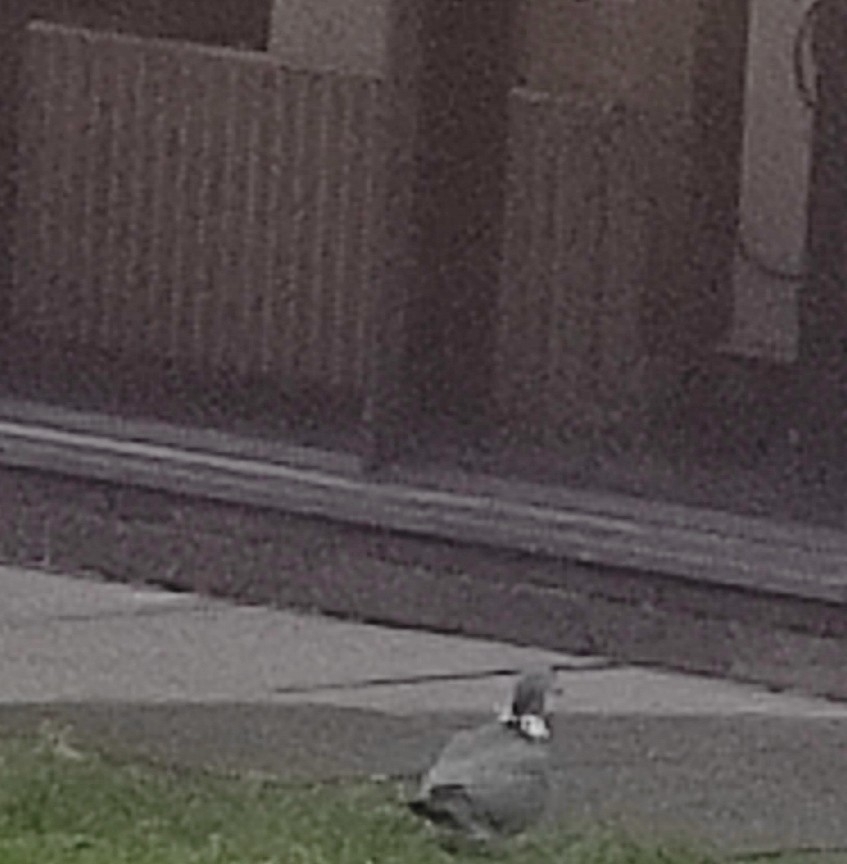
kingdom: Animalia
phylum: Chordata
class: Aves
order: Columbiformes
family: Columbidae
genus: Columba
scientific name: Columba palumbus
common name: Common wood pigeon
